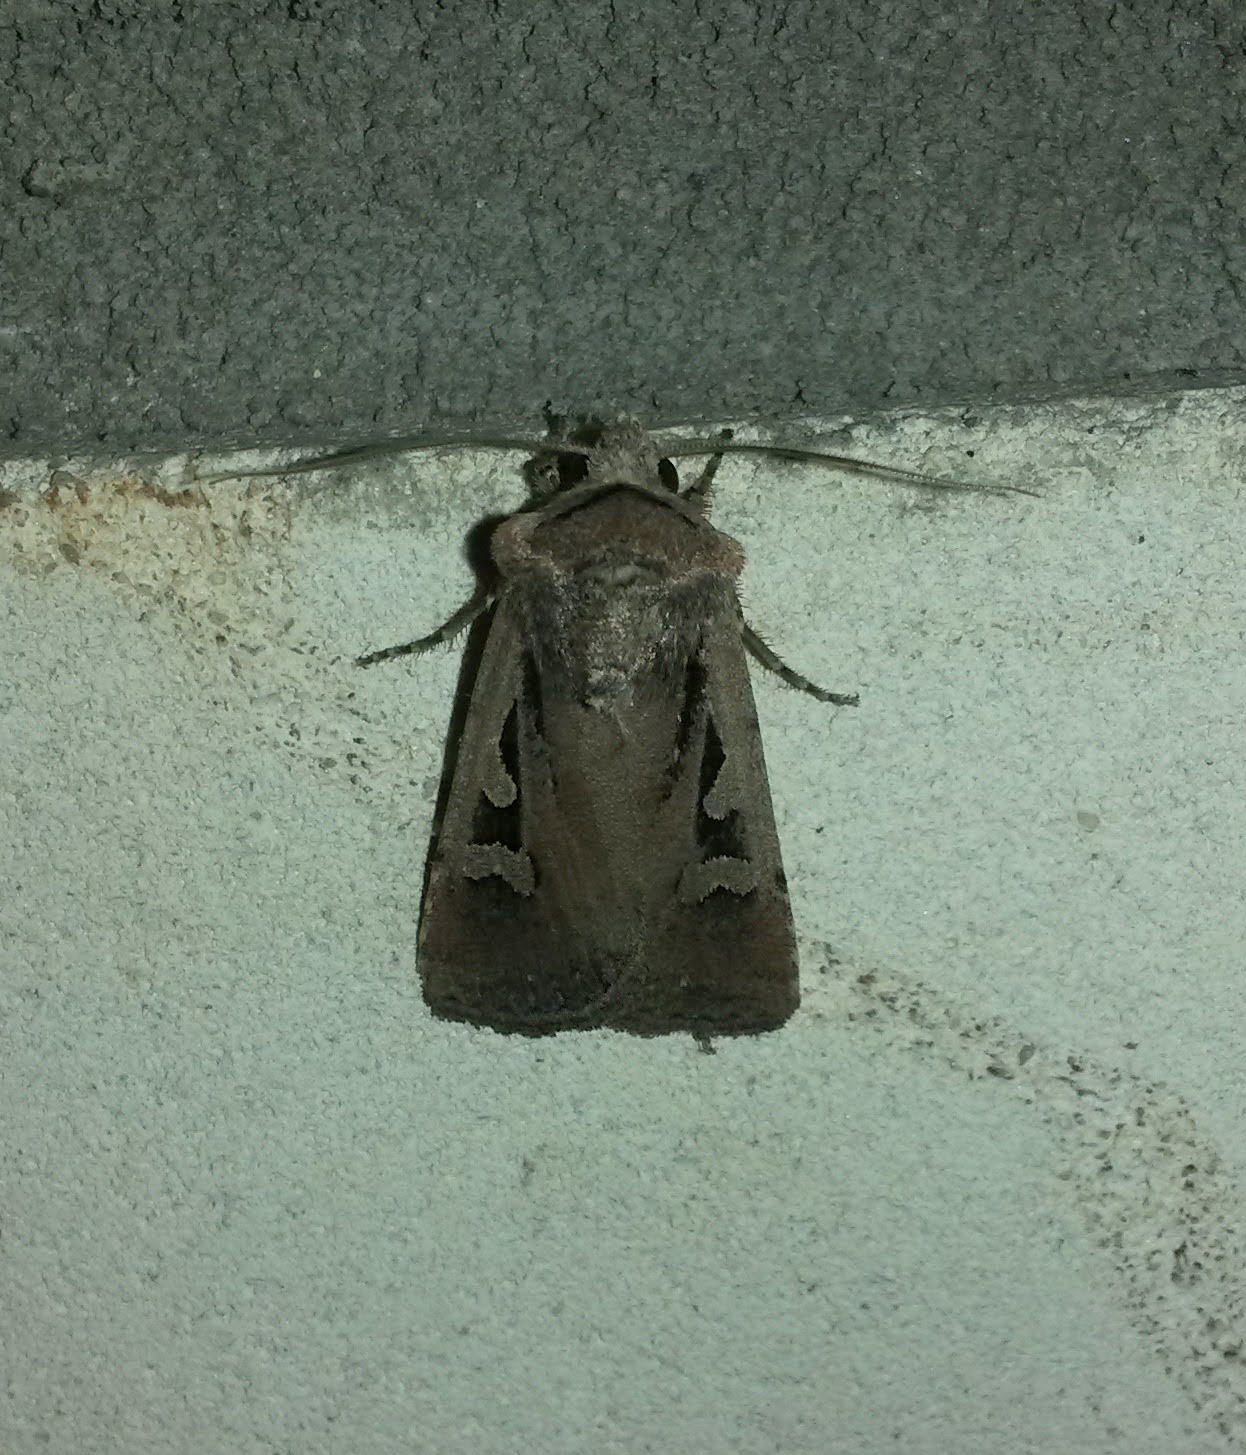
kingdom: Animalia
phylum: Arthropoda
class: Insecta
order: Lepidoptera
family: Noctuidae
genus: Euxoa
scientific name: Euxoa basigramma
